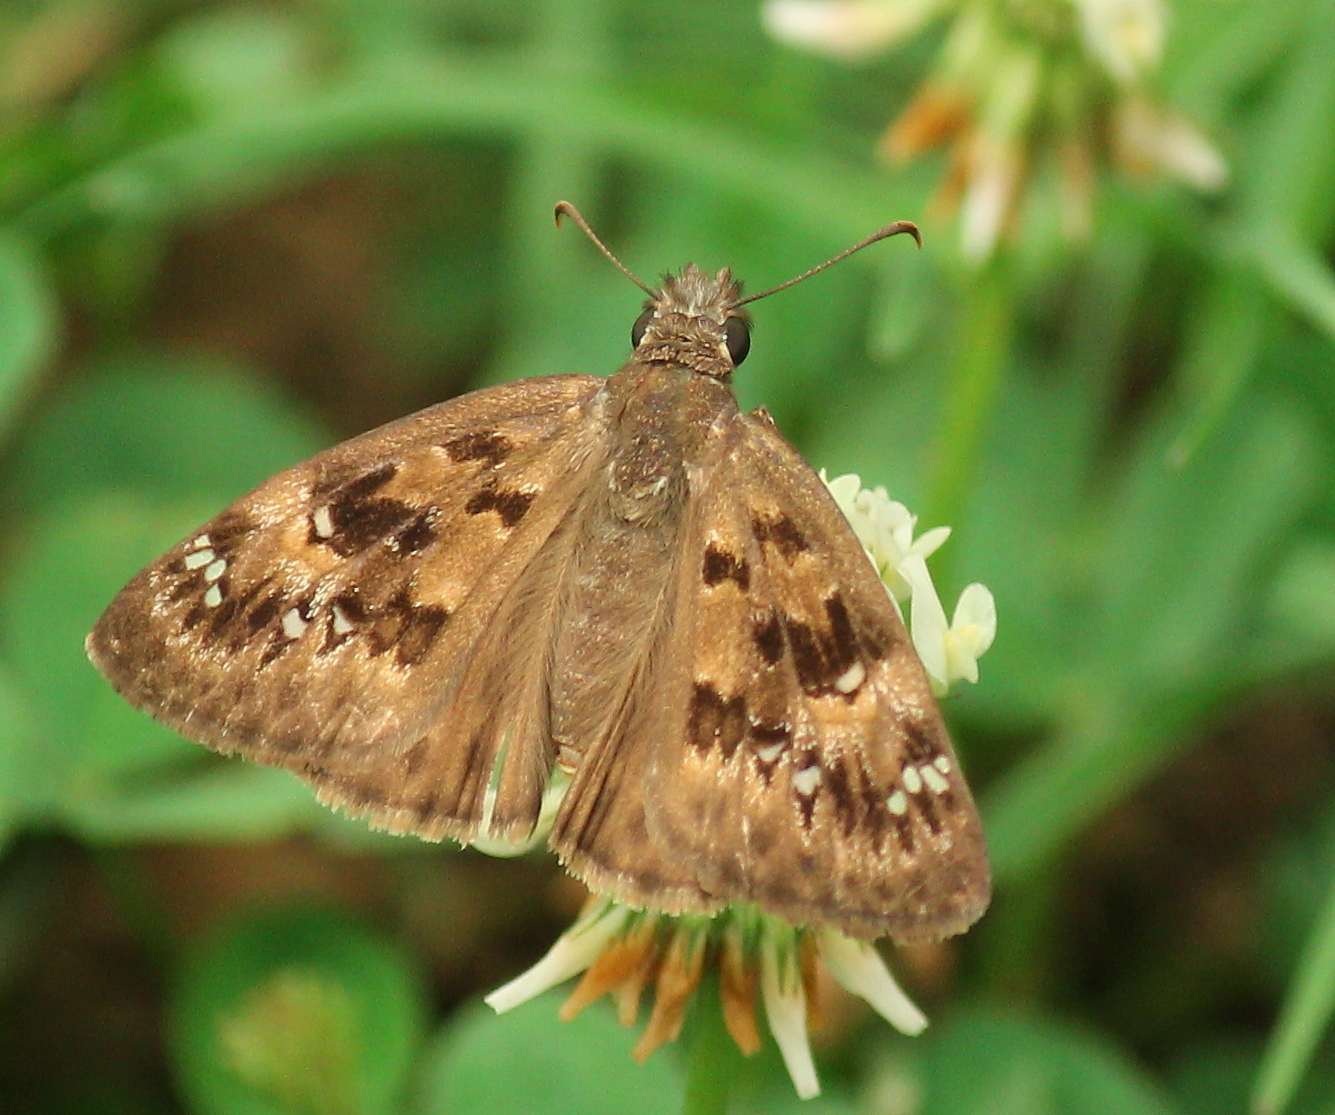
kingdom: Animalia
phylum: Arthropoda
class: Insecta
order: Lepidoptera
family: Hesperiidae
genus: Erynnis
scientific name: Erynnis horatius
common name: Horace's duskywing
